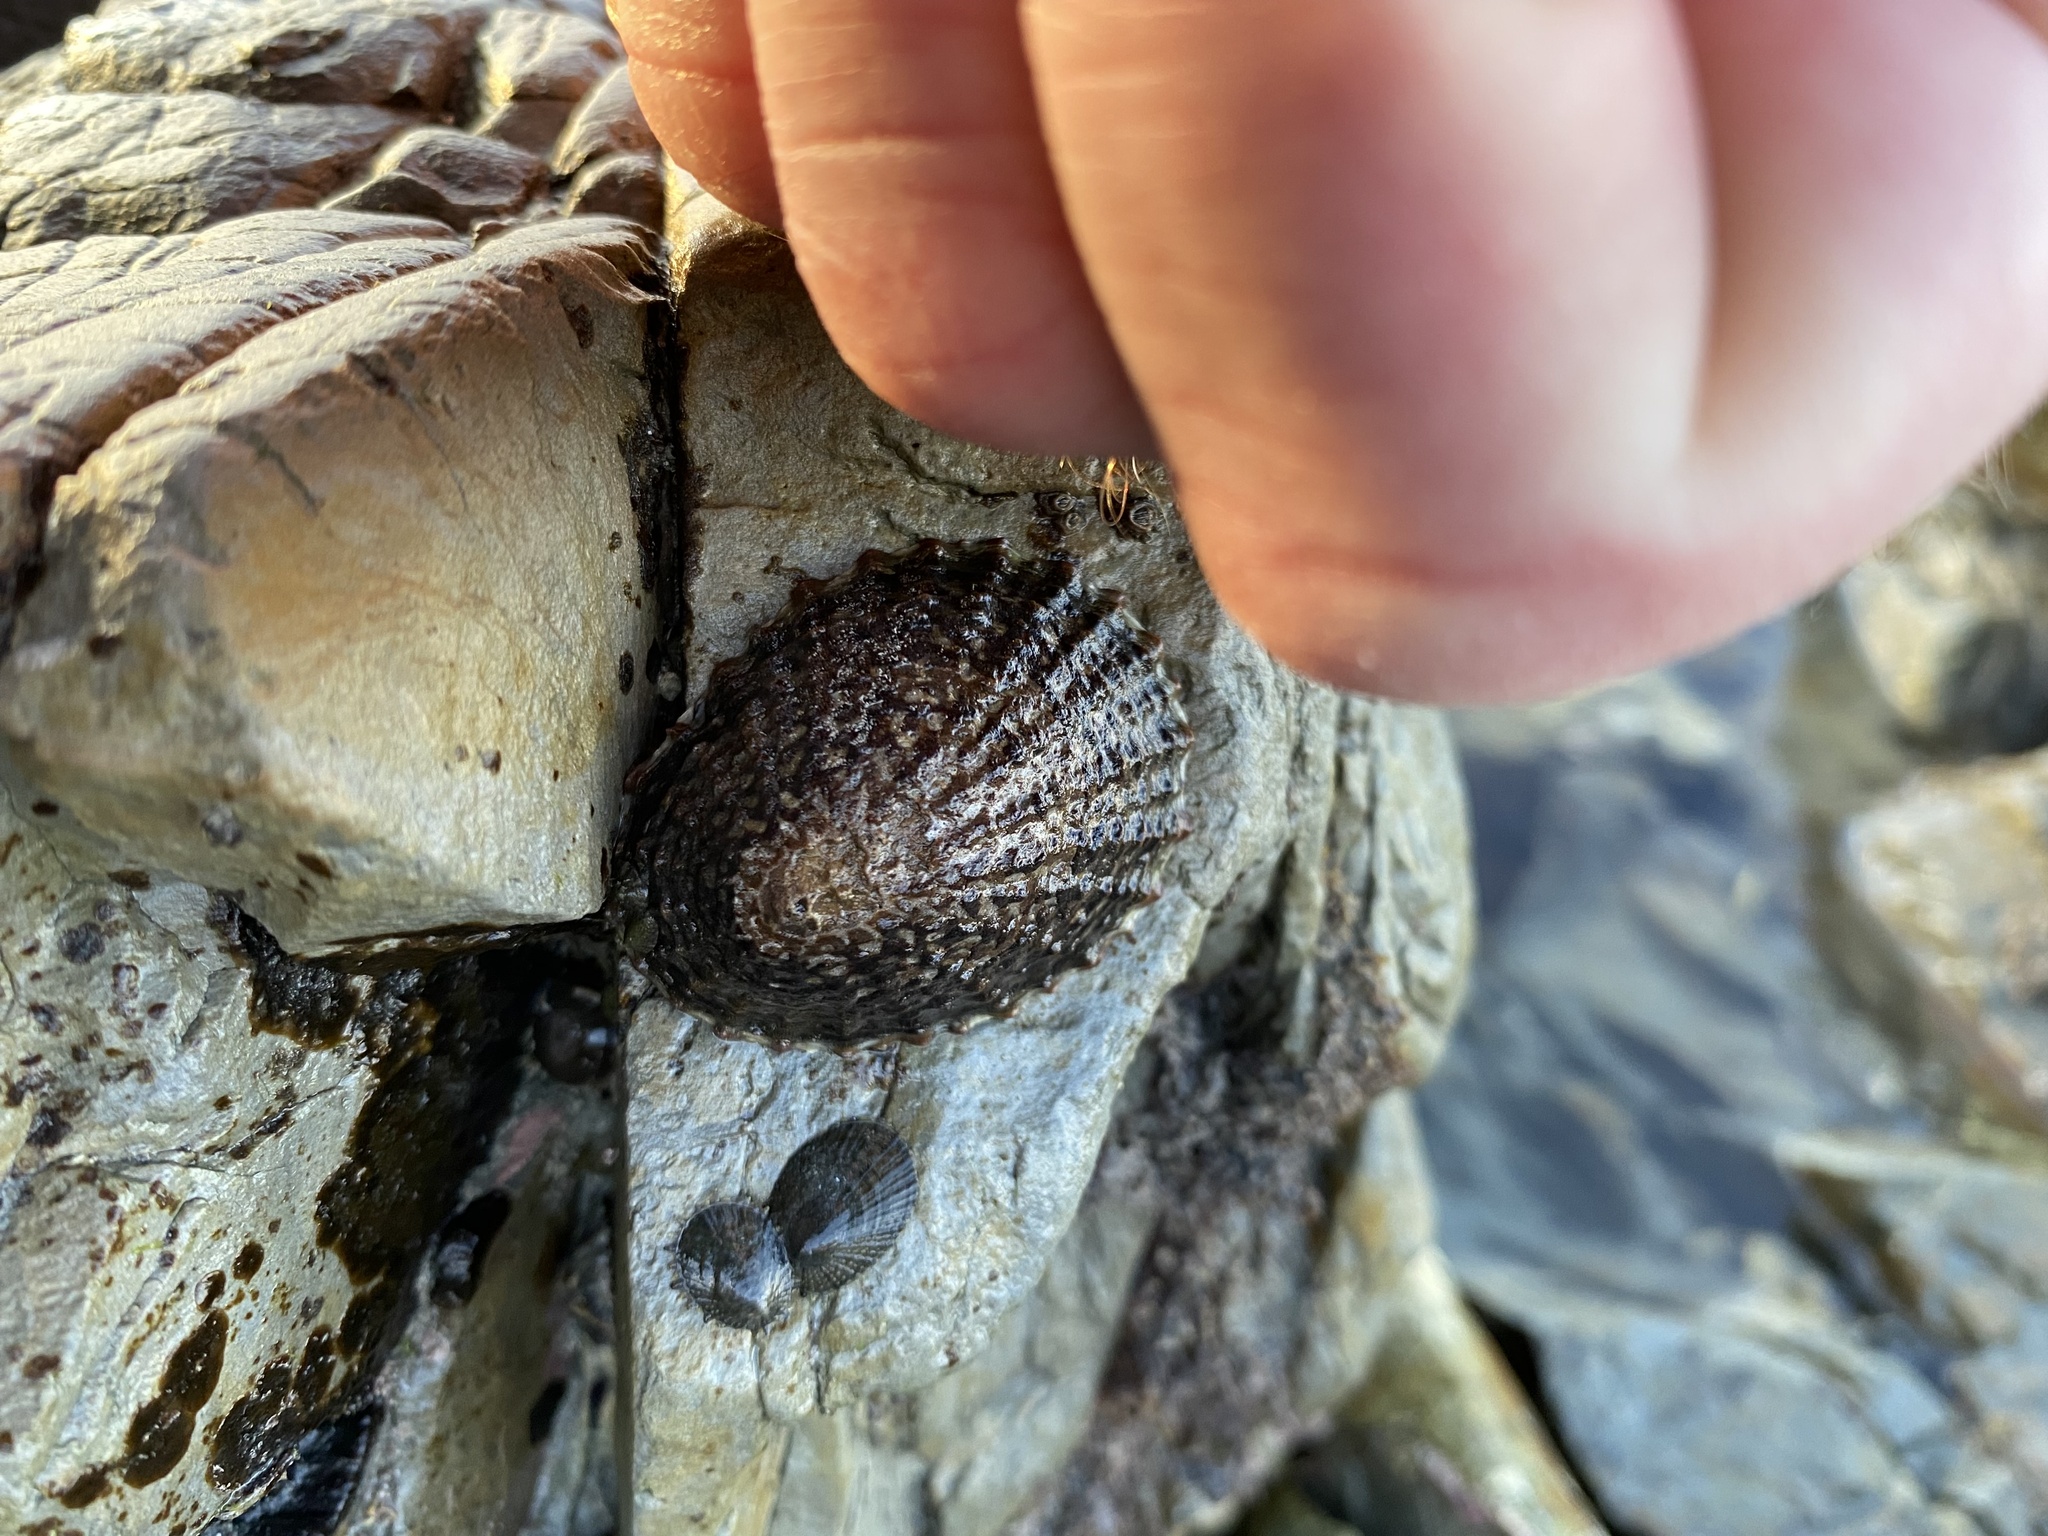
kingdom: Animalia
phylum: Mollusca
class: Gastropoda
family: Nacellidae
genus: Cellana
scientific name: Cellana denticulata
